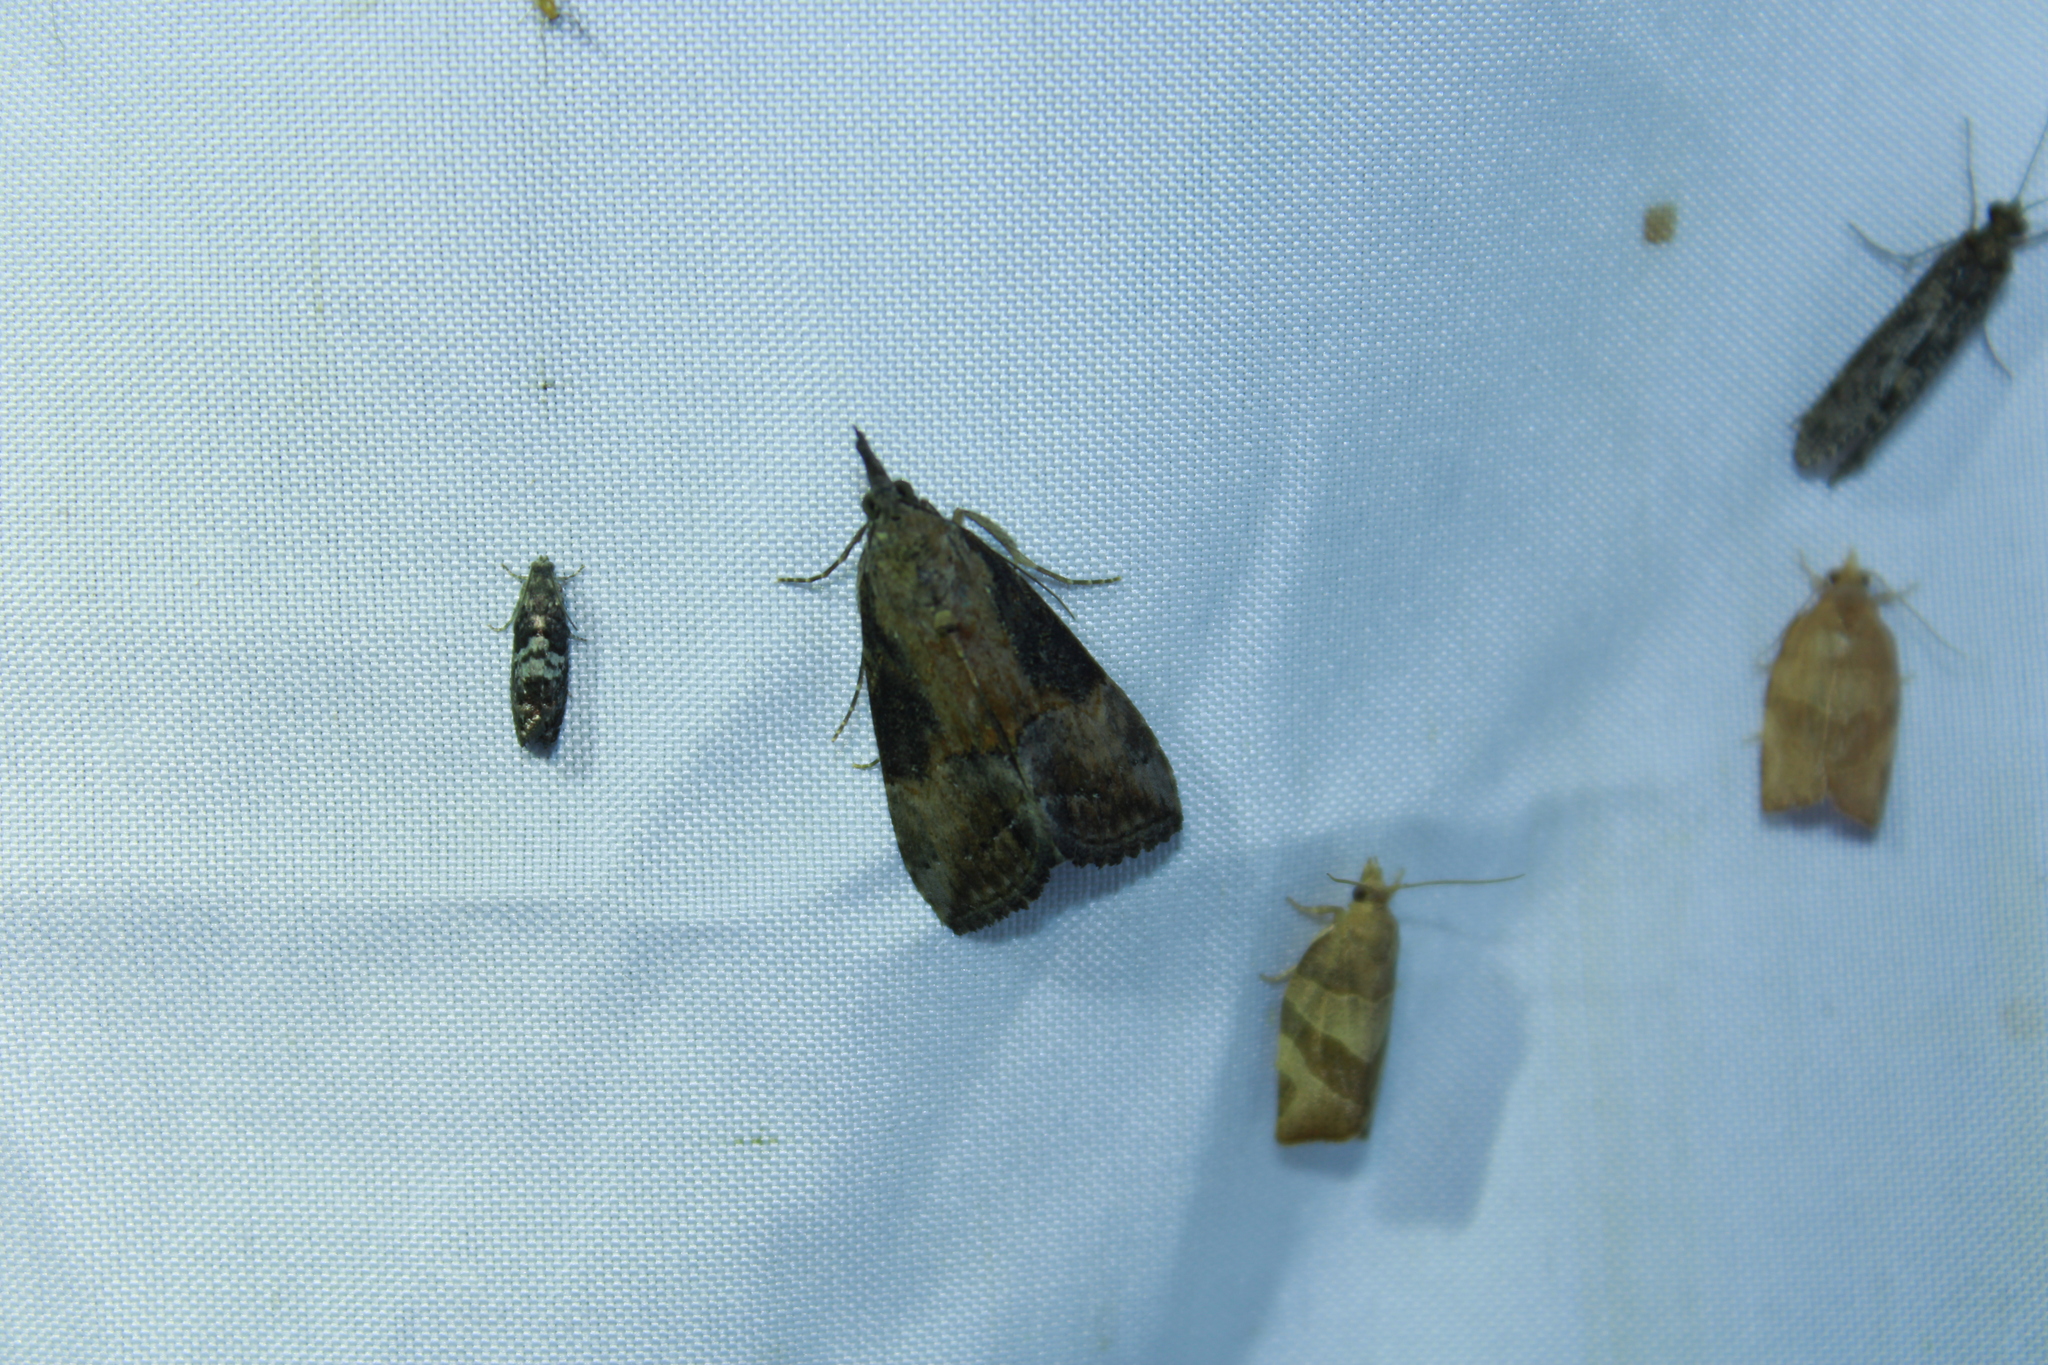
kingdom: Animalia
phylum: Arthropoda
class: Insecta
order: Lepidoptera
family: Erebidae
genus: Hypena
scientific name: Hypena scabra
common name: Green cloverworm
